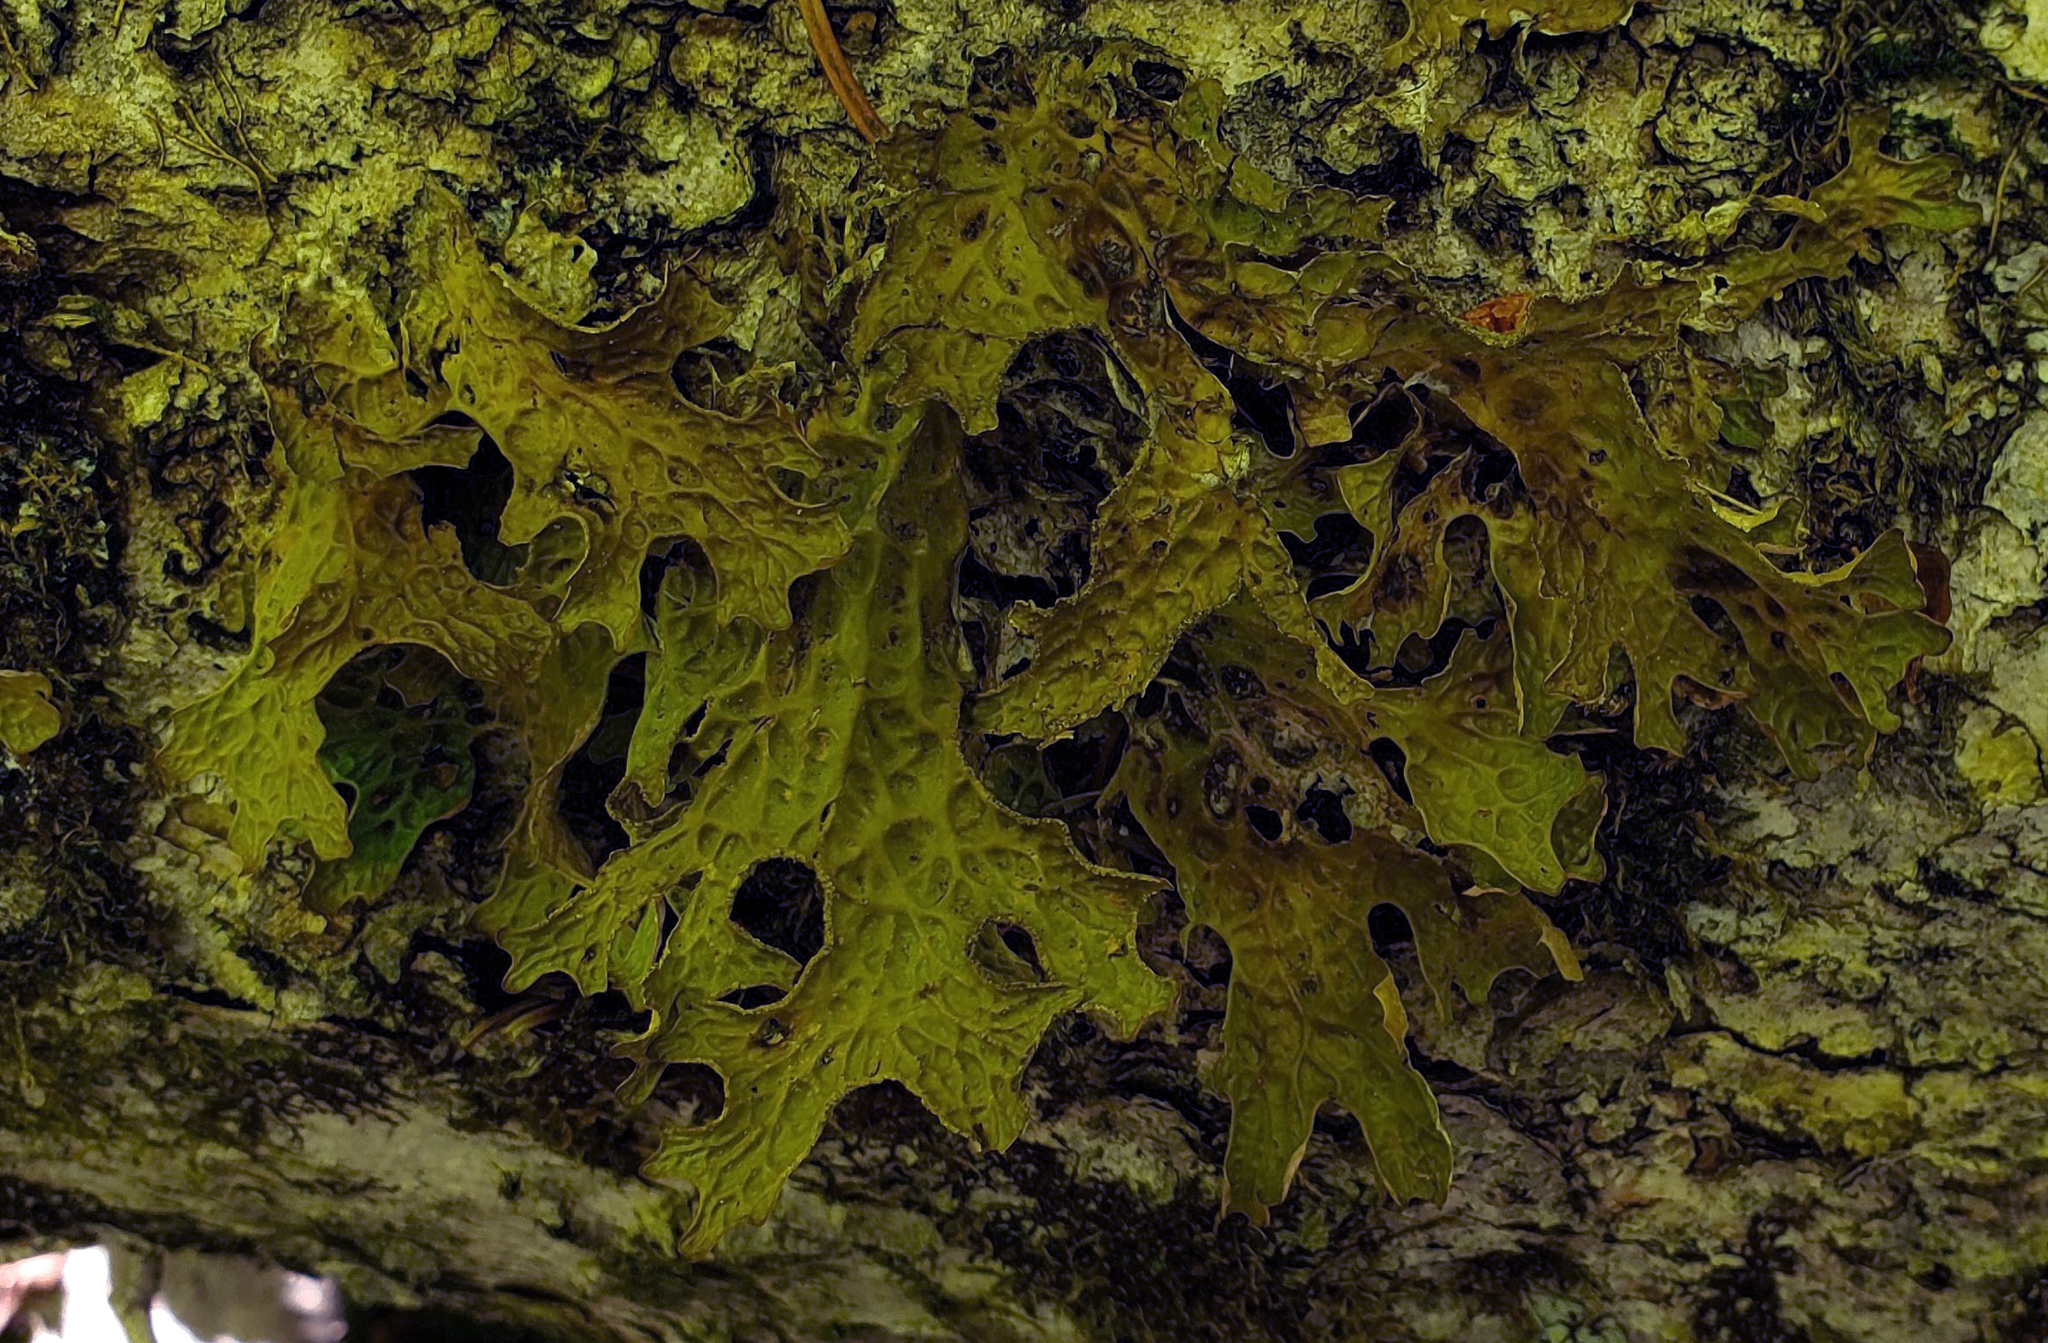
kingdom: Fungi
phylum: Ascomycota
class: Lecanoromycetes
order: Peltigerales
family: Lobariaceae
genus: Lobaria
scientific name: Lobaria pulmonaria
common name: Lungwort
